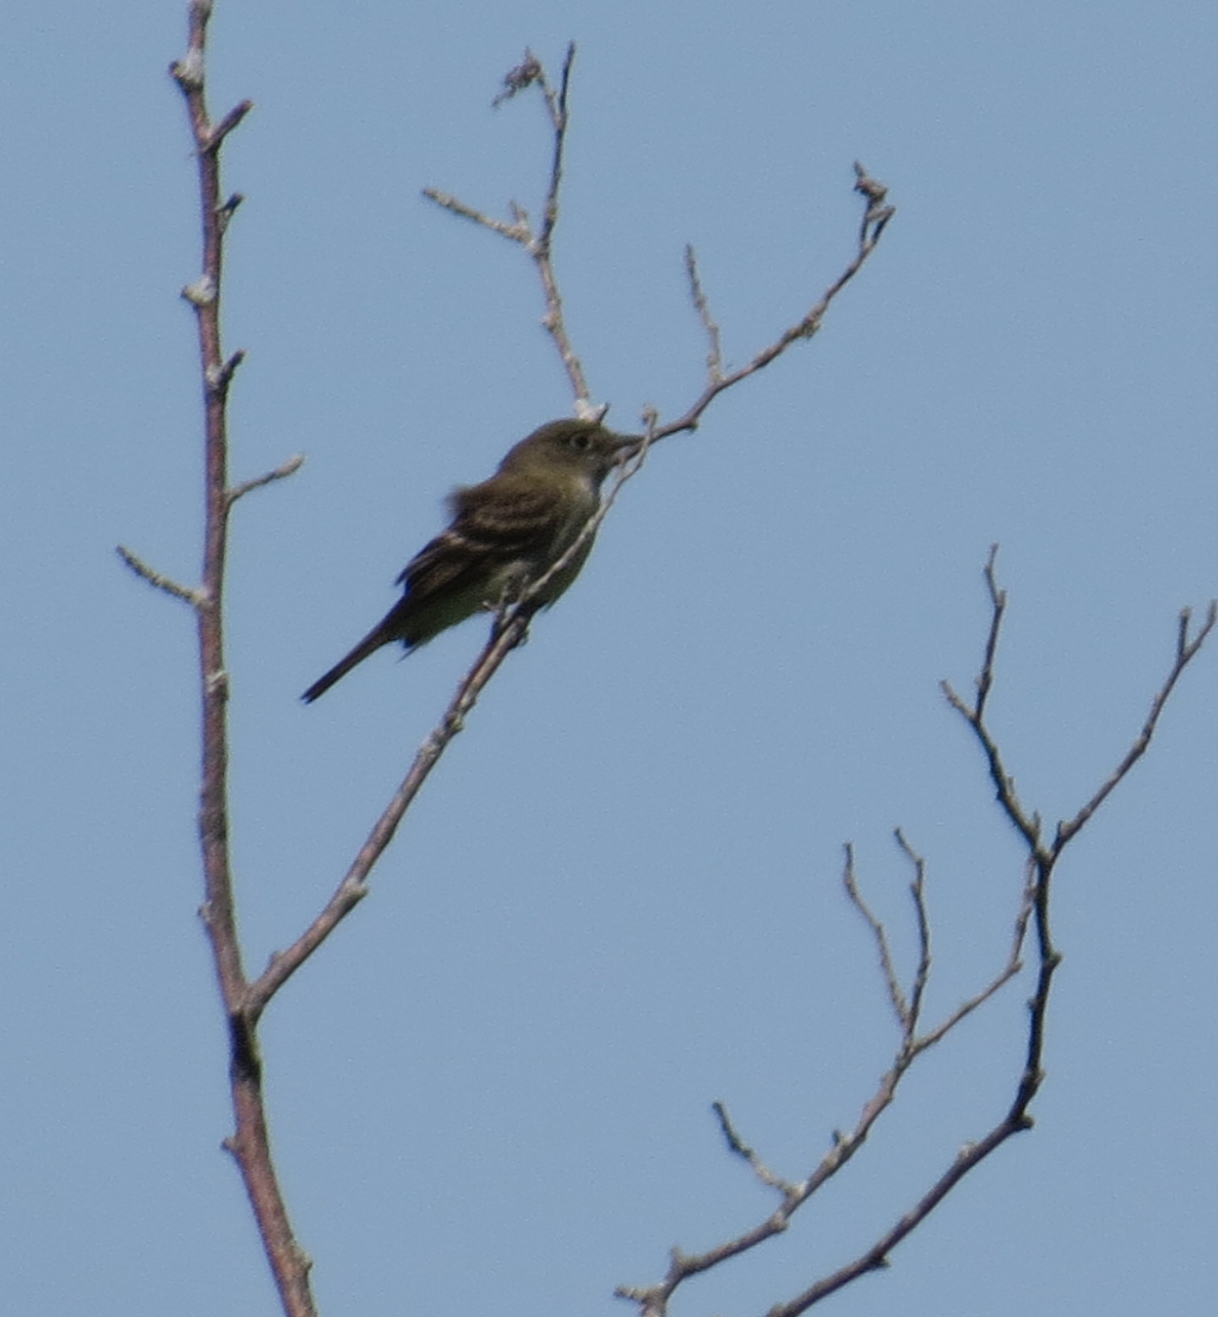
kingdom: Animalia
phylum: Chordata
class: Aves
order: Passeriformes
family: Tyrannidae
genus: Empidonax
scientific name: Empidonax alnorum
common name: Alder flycatcher
